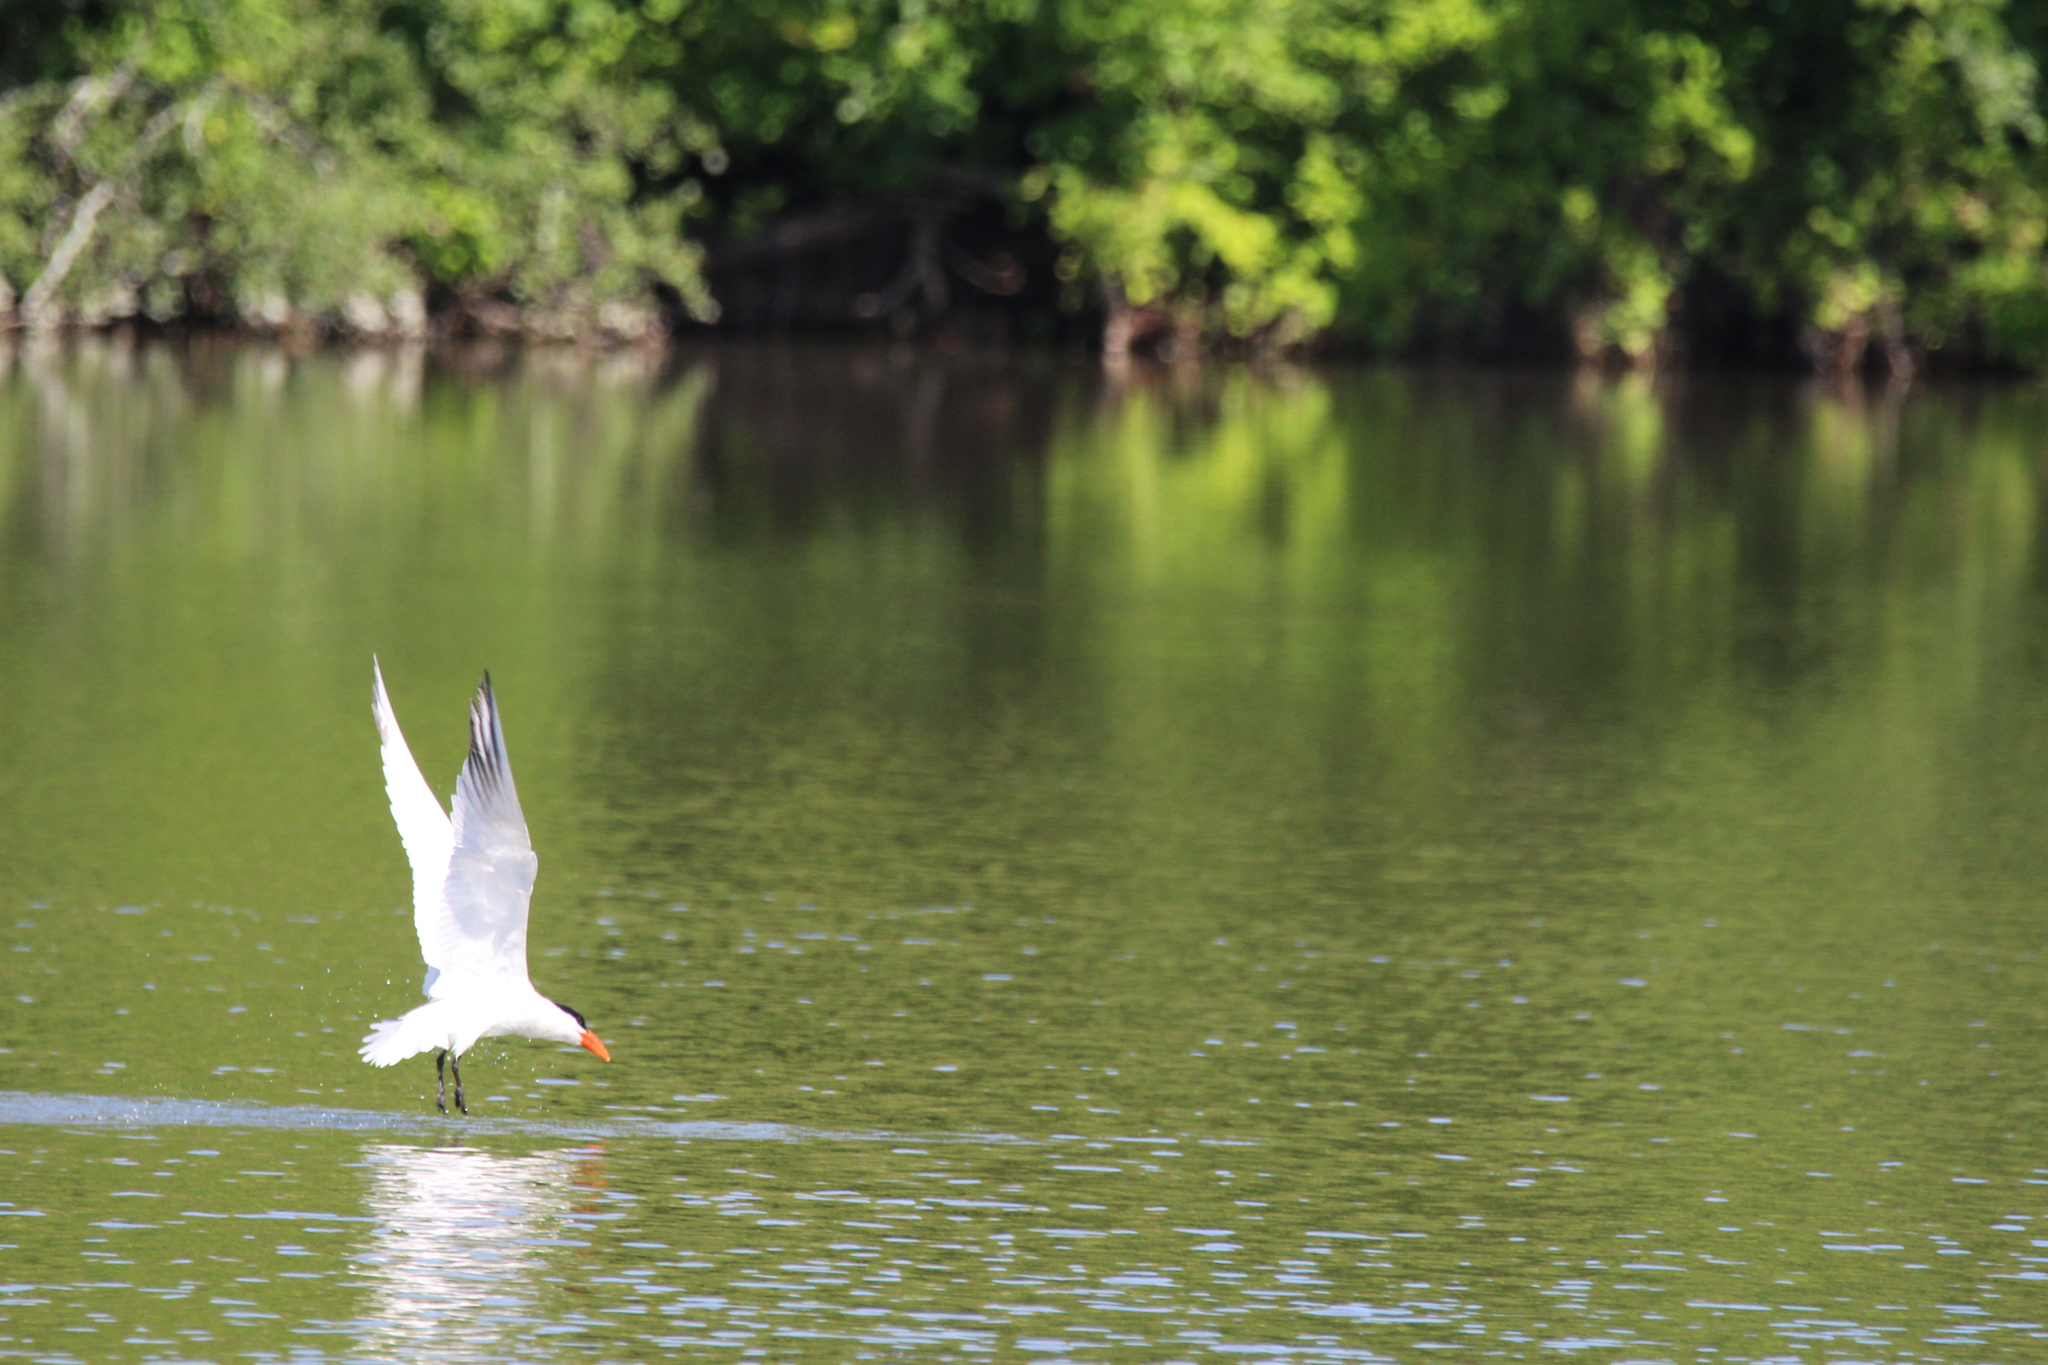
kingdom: Animalia
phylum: Chordata
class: Aves
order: Charadriiformes
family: Laridae
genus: Hydroprogne
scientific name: Hydroprogne caspia
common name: Caspian tern
